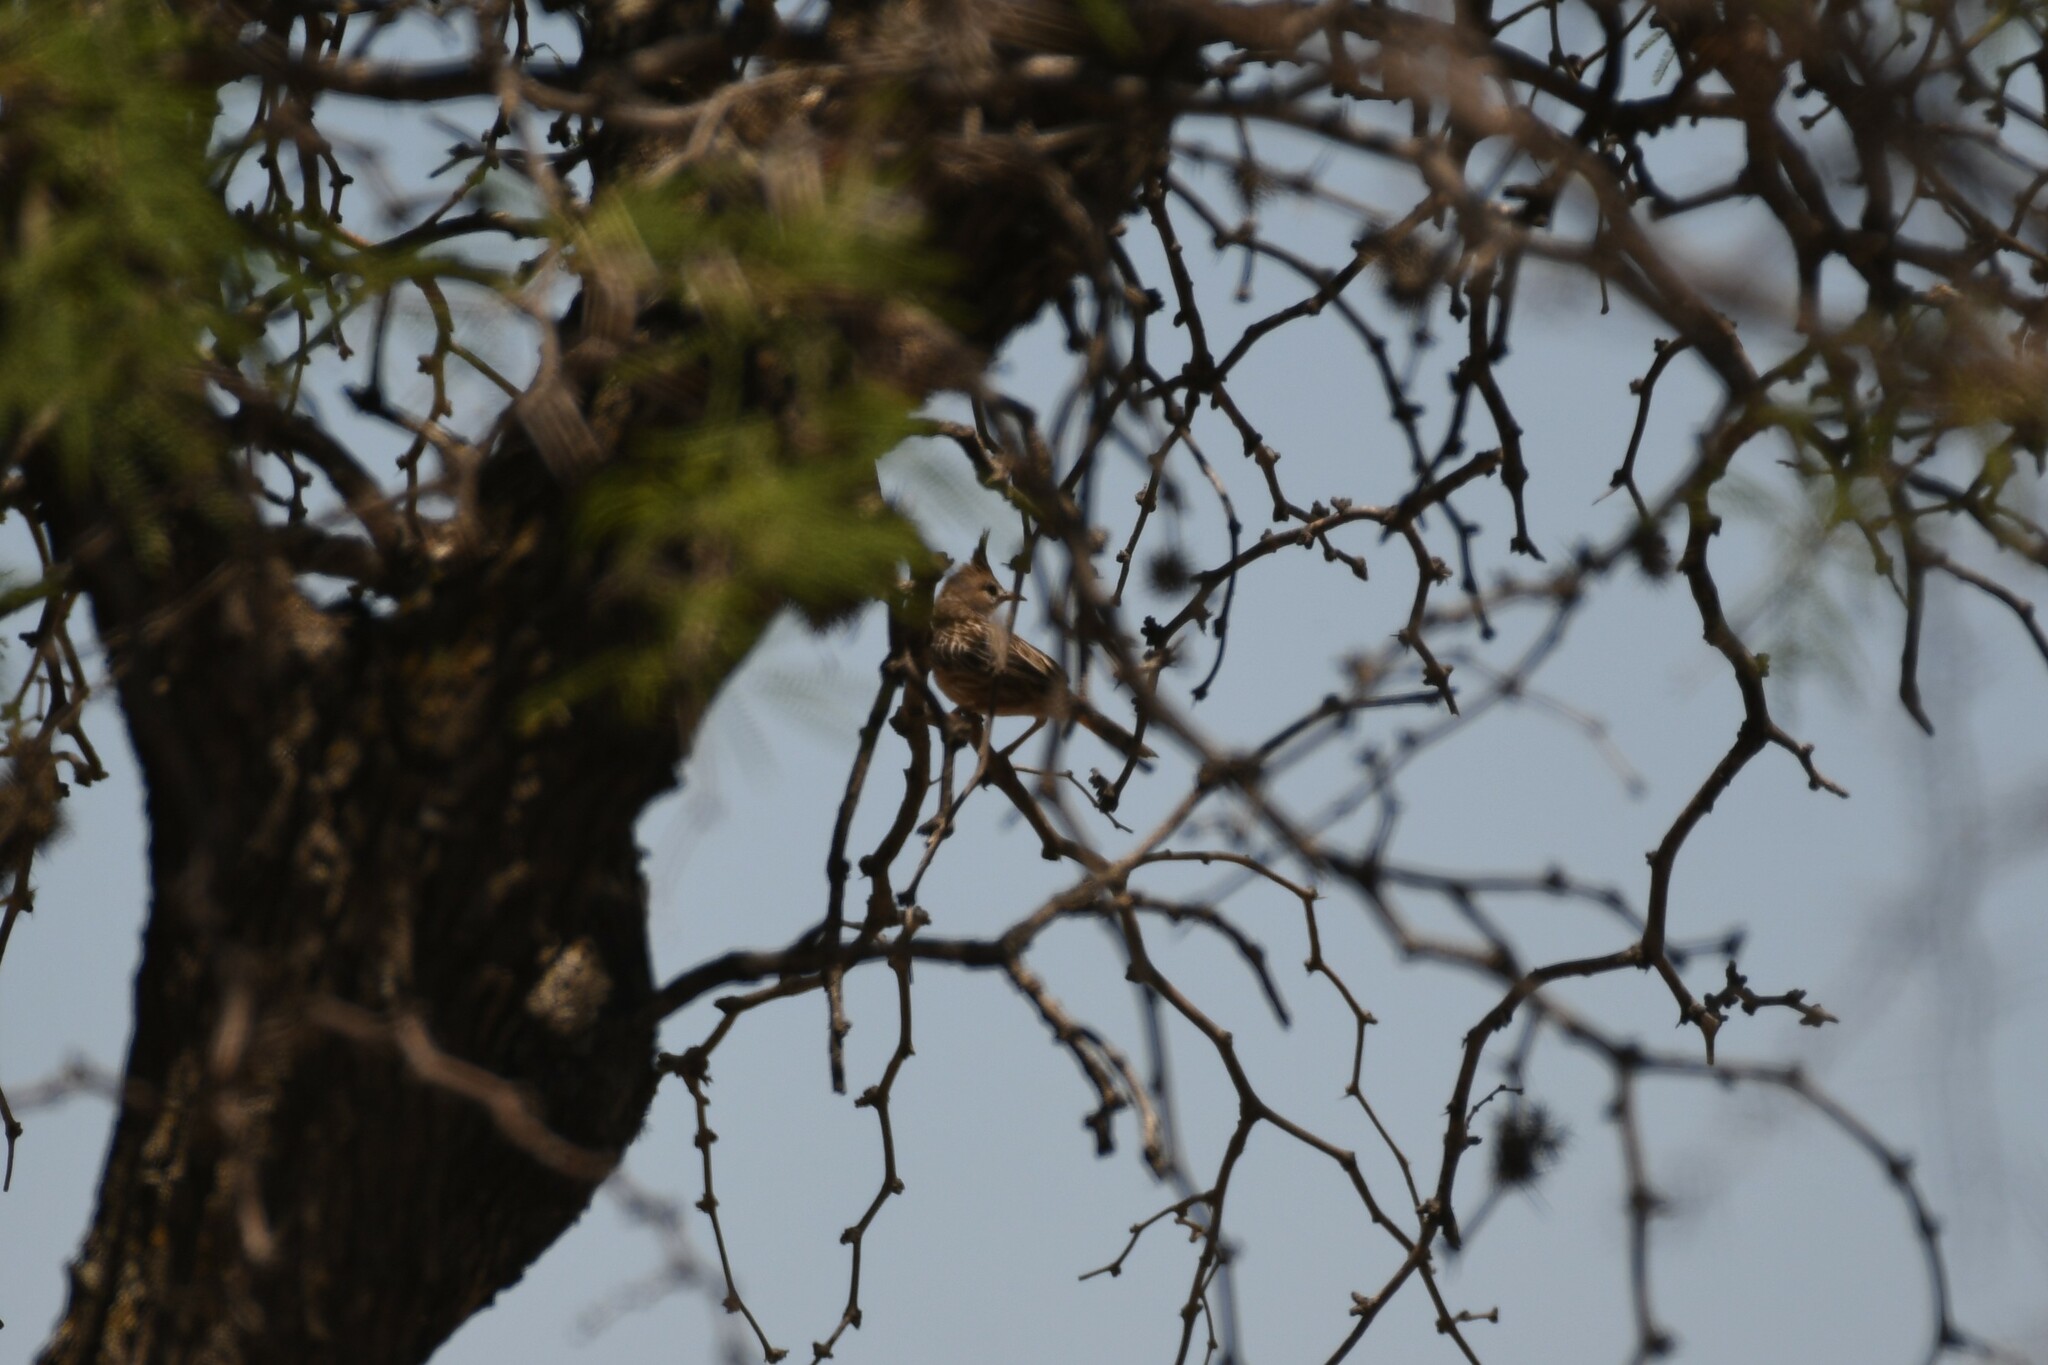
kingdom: Animalia
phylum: Chordata
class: Aves
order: Passeriformes
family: Furnariidae
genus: Coryphistera
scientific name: Coryphistera alaudina
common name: Lark-like brushrunner
